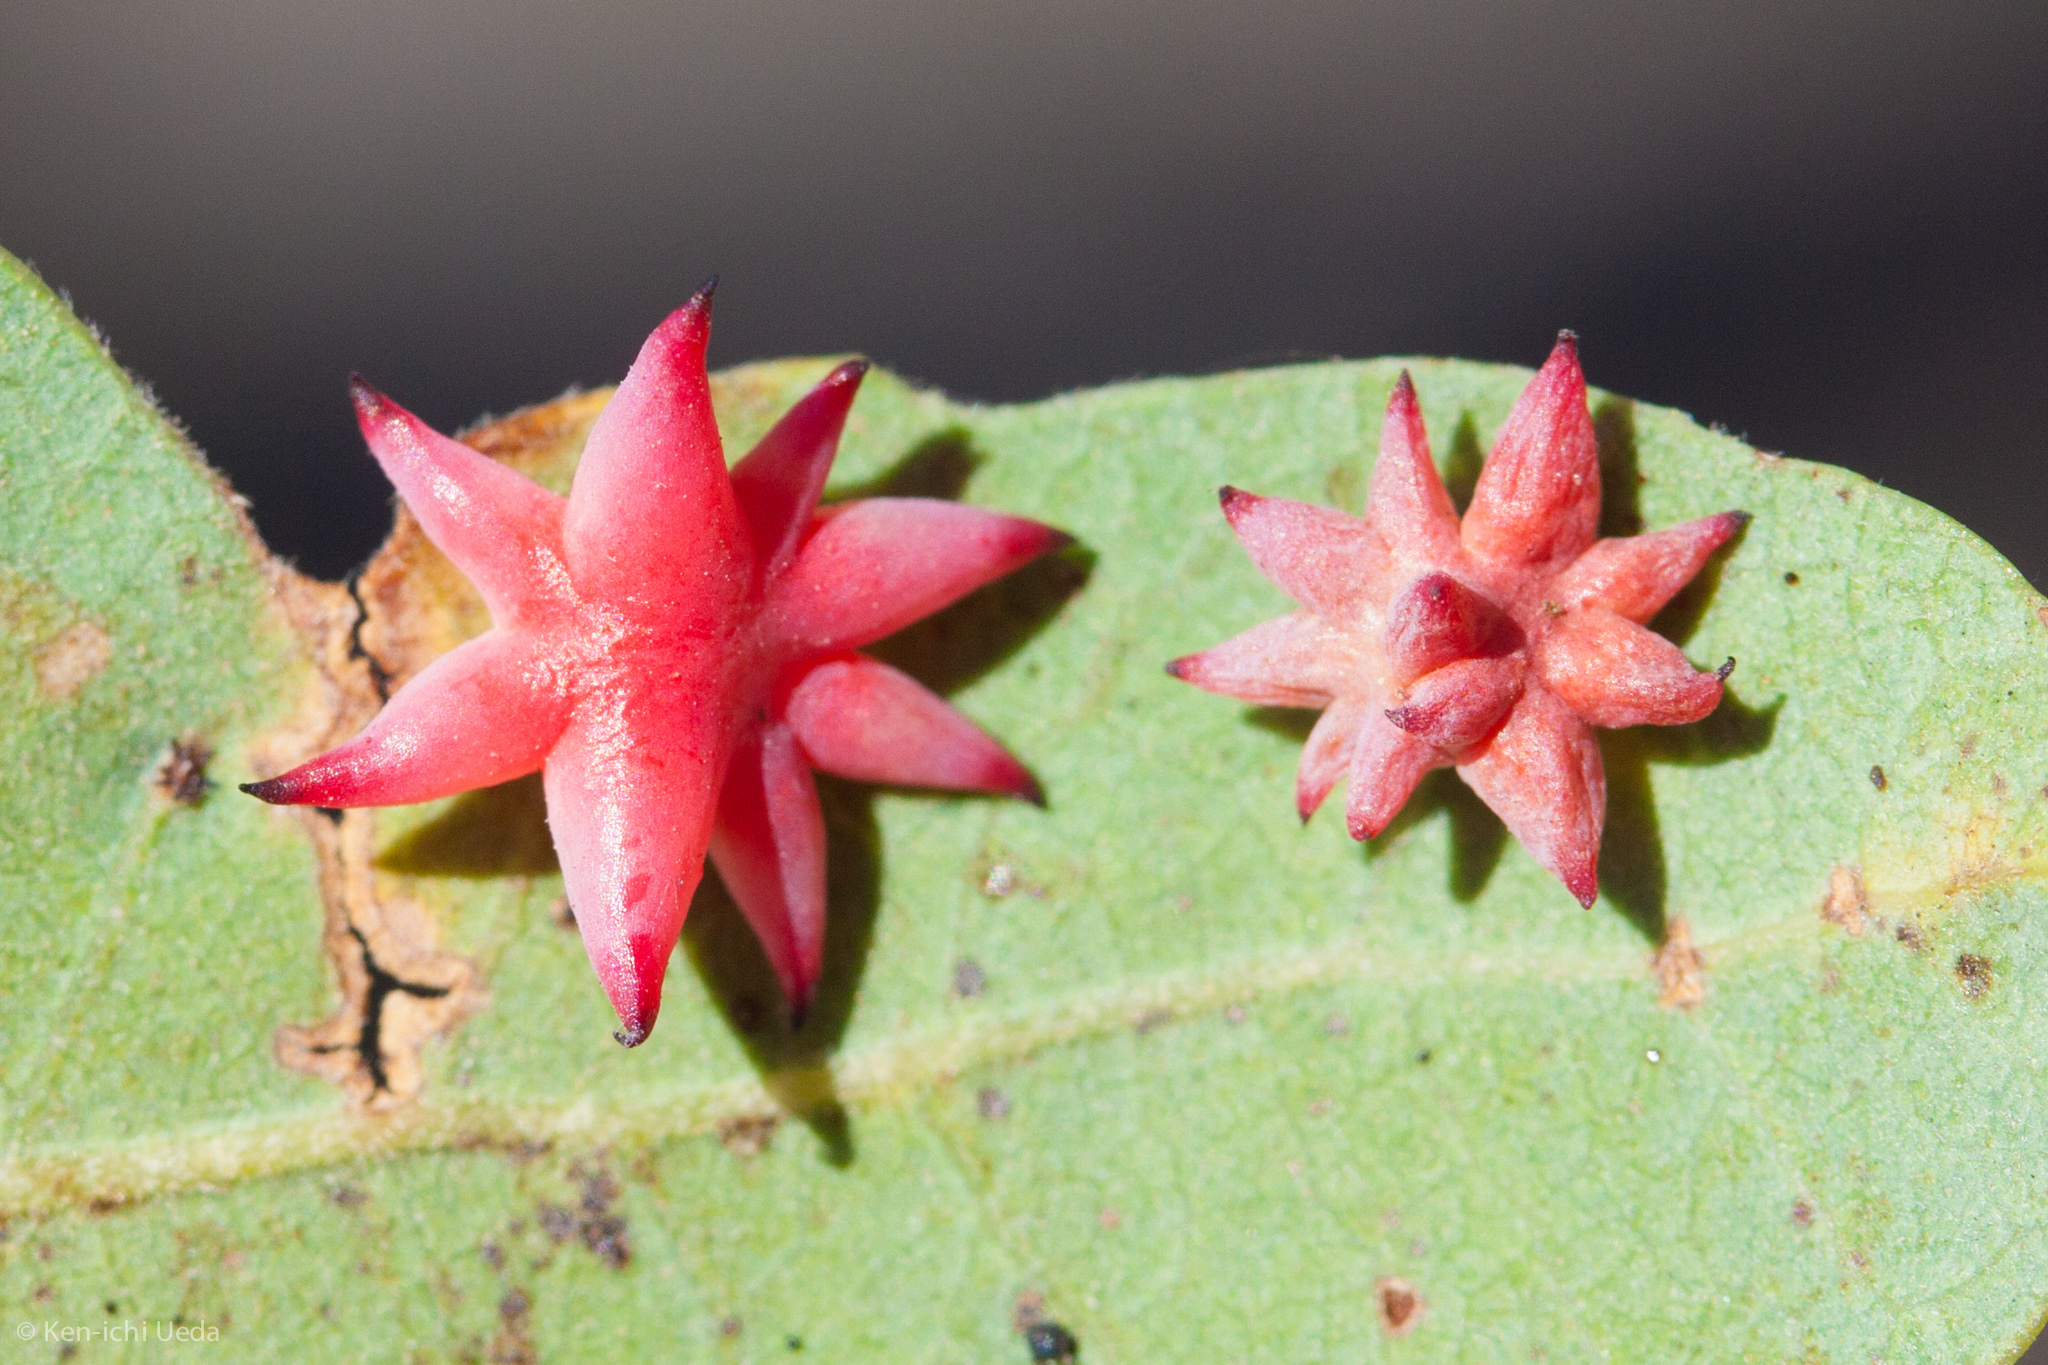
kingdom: Animalia
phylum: Arthropoda
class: Insecta
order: Hymenoptera
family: Cynipidae
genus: Cynips
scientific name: Cynips douglasi
